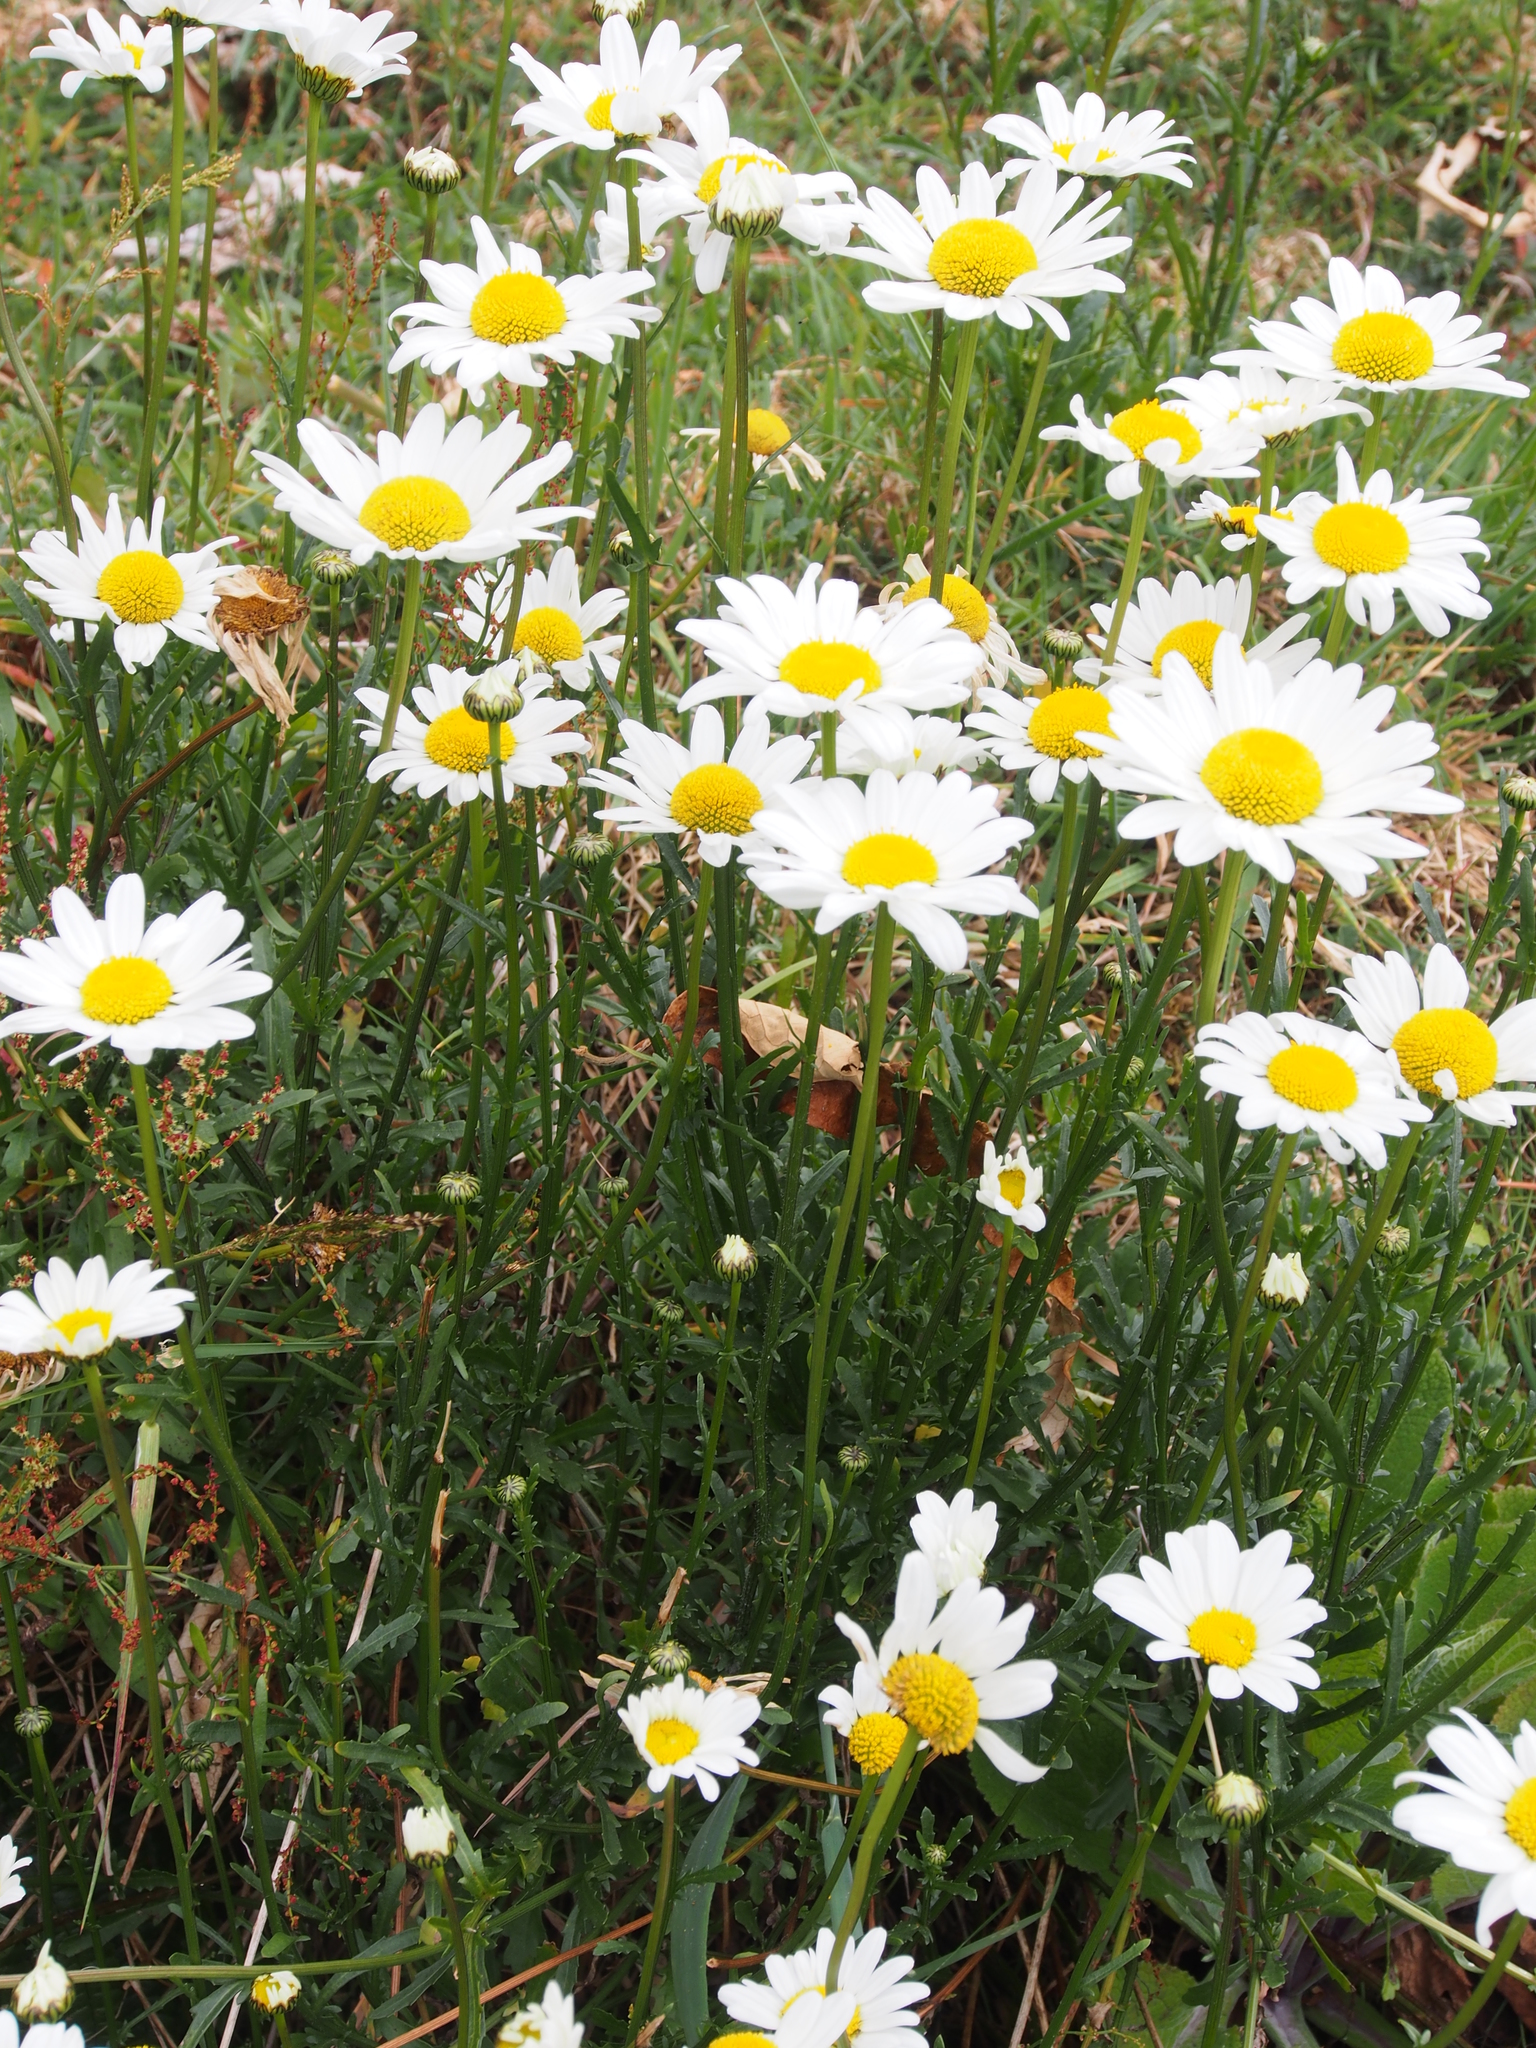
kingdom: Plantae
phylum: Tracheophyta
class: Magnoliopsida
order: Asterales
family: Asteraceae
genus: Leucanthemum
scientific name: Leucanthemum vulgare
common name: Oxeye daisy
